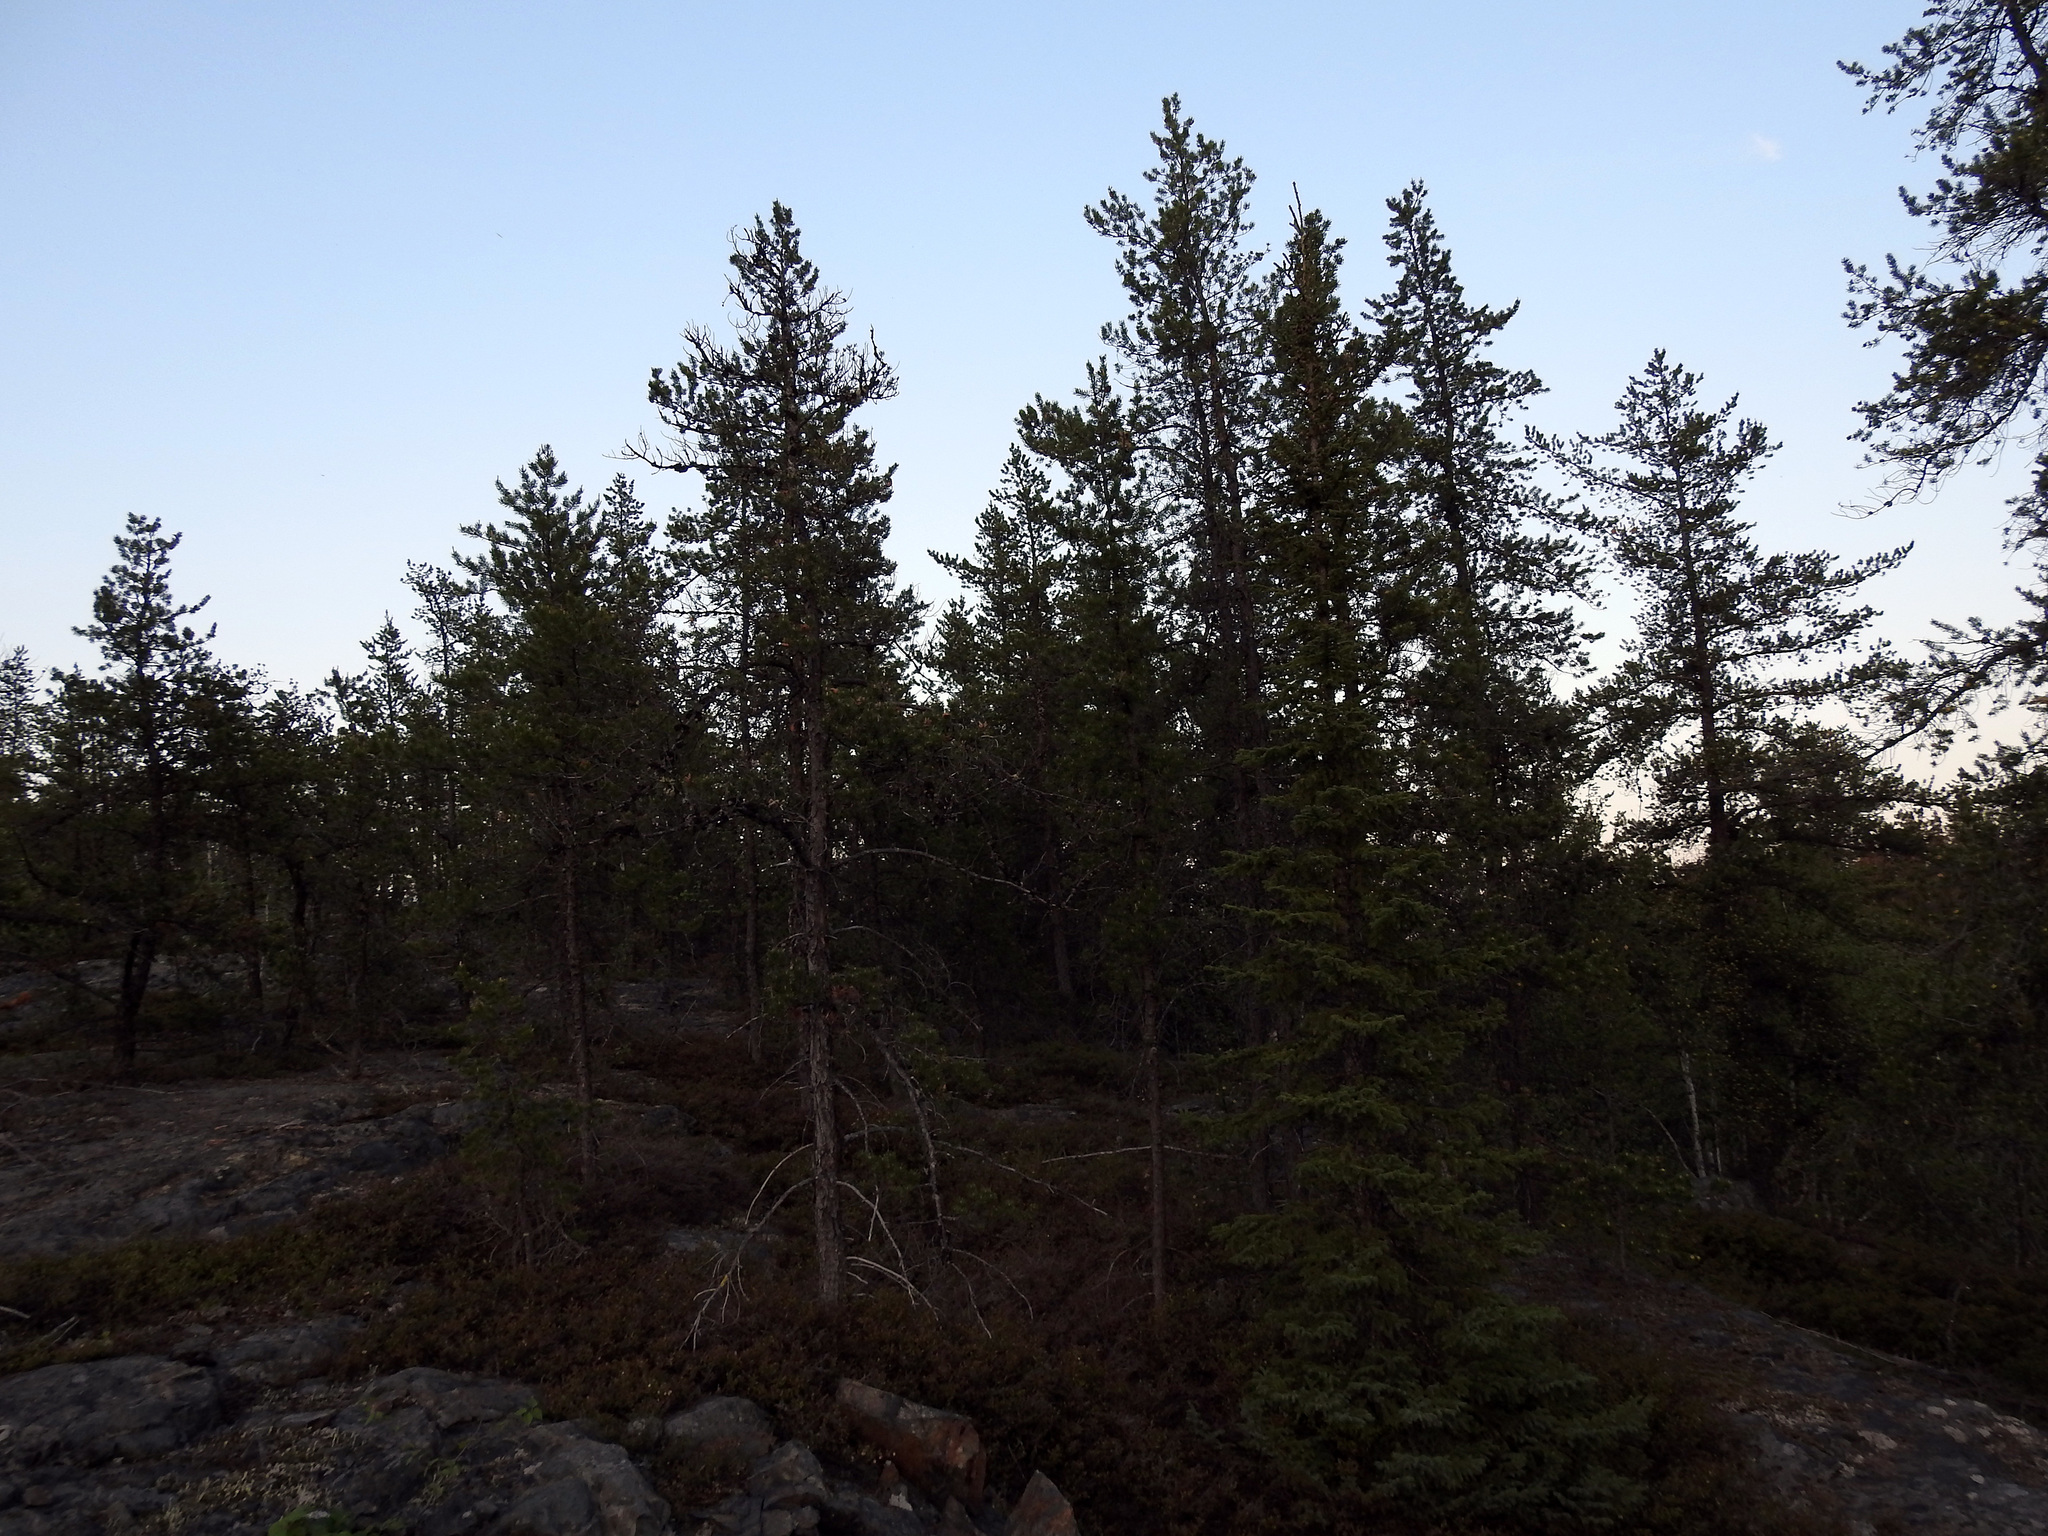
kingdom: Plantae
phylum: Tracheophyta
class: Pinopsida
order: Pinales
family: Pinaceae
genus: Pinus
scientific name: Pinus banksiana
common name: Jack pine
